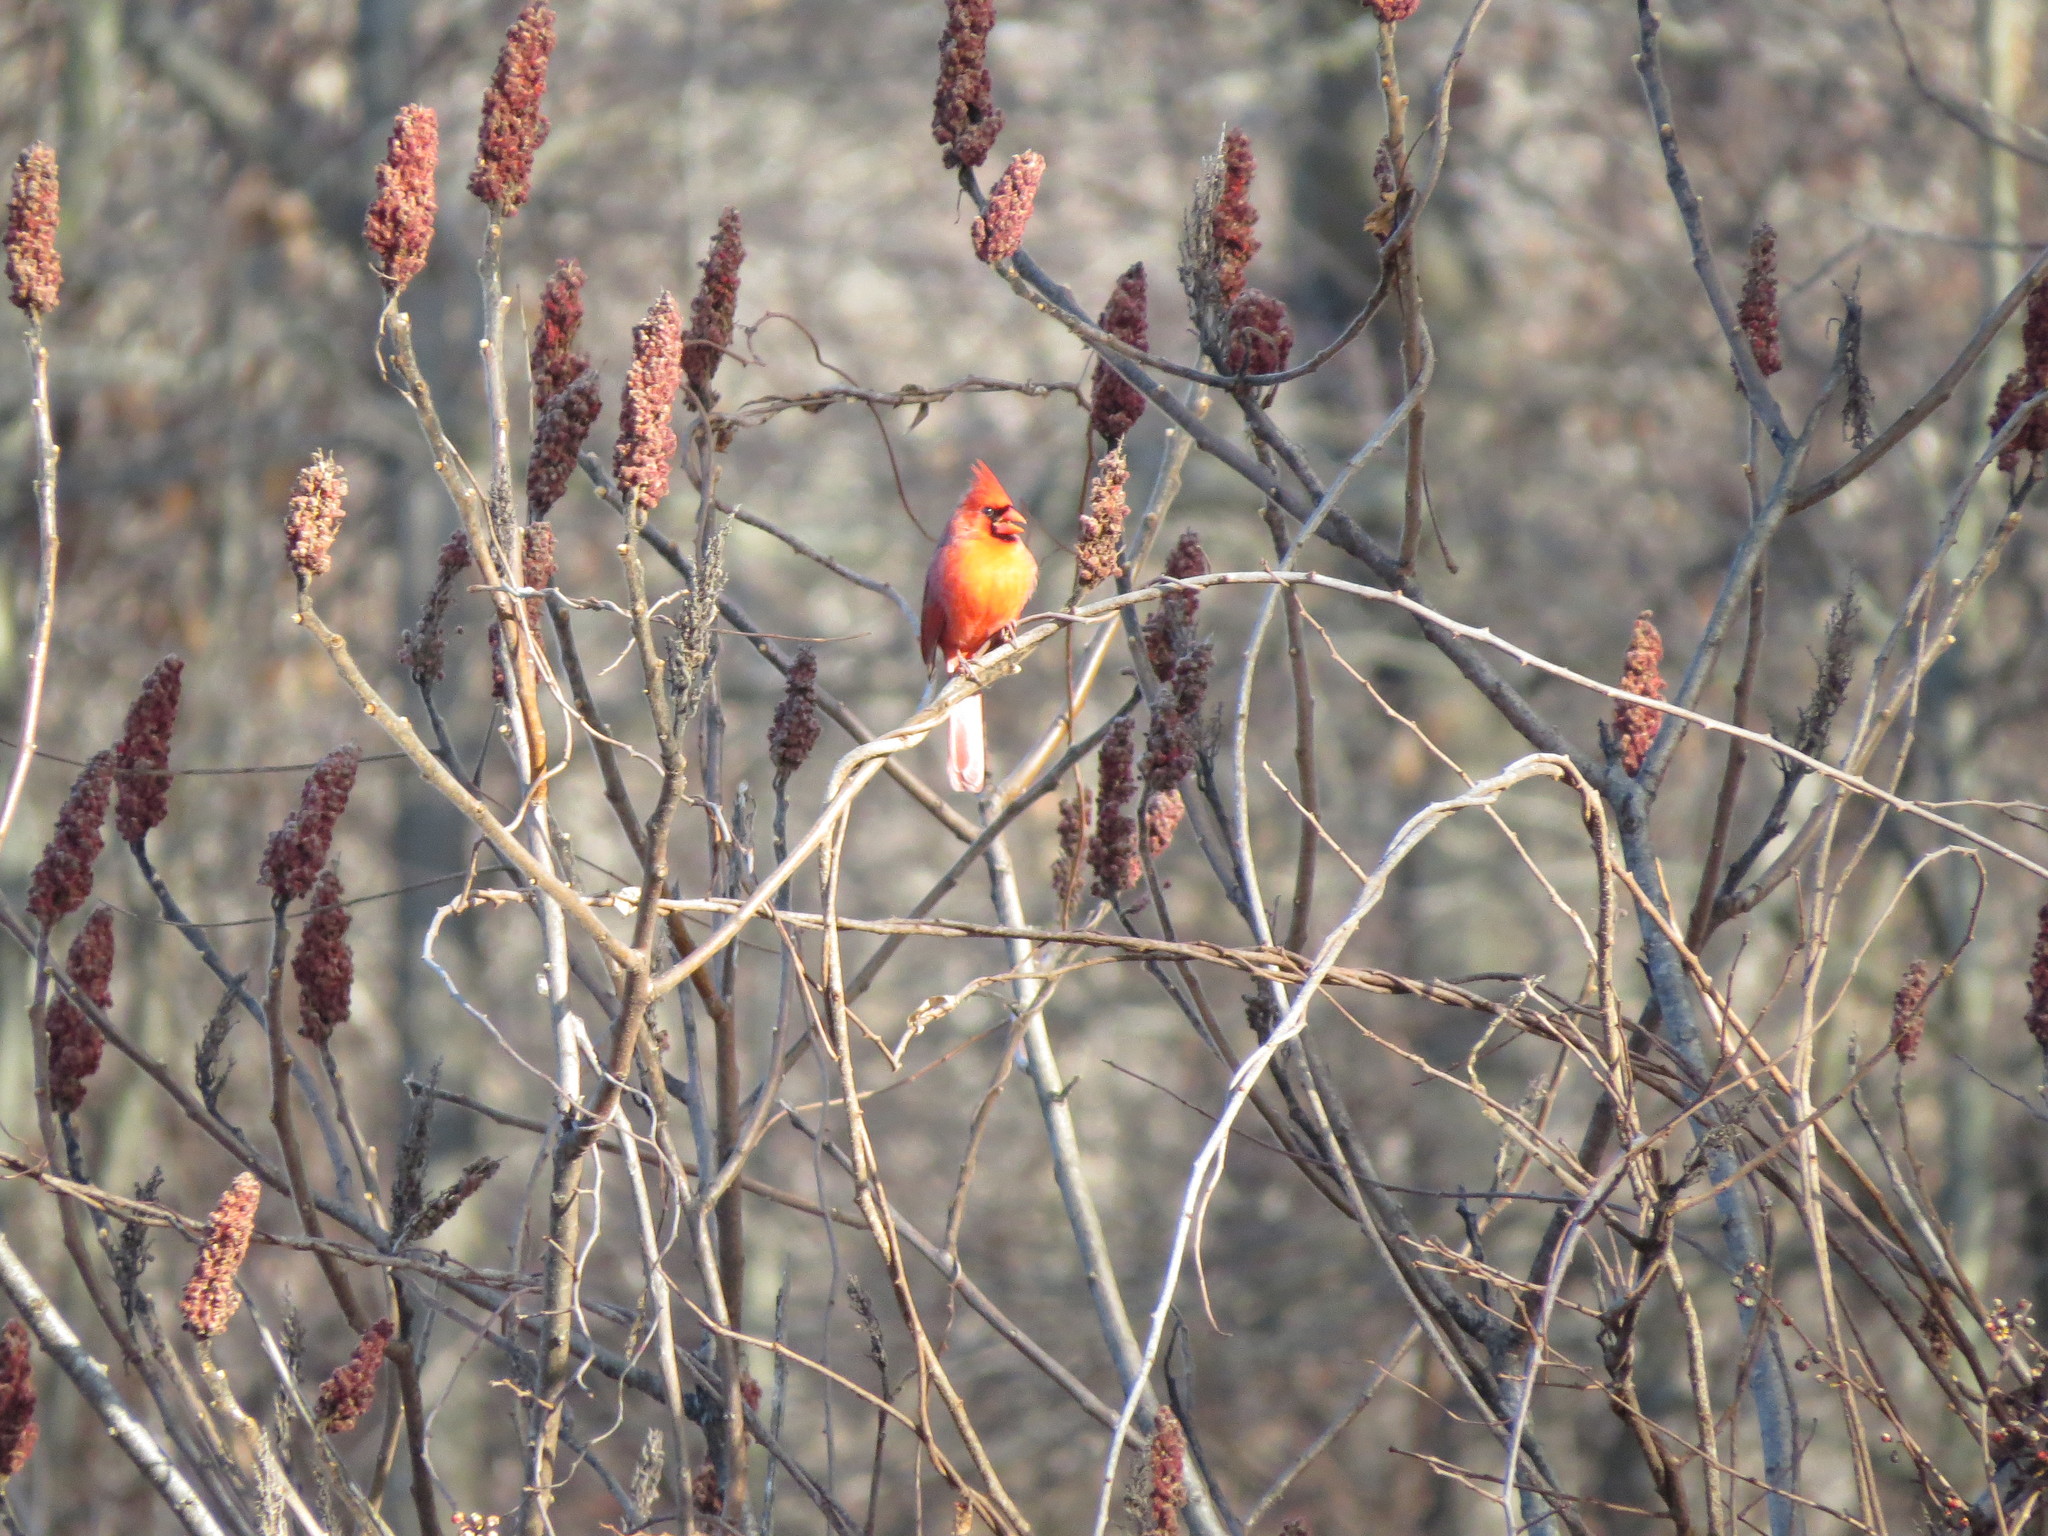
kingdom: Animalia
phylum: Chordata
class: Aves
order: Passeriformes
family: Cardinalidae
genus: Cardinalis
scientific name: Cardinalis cardinalis
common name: Northern cardinal
